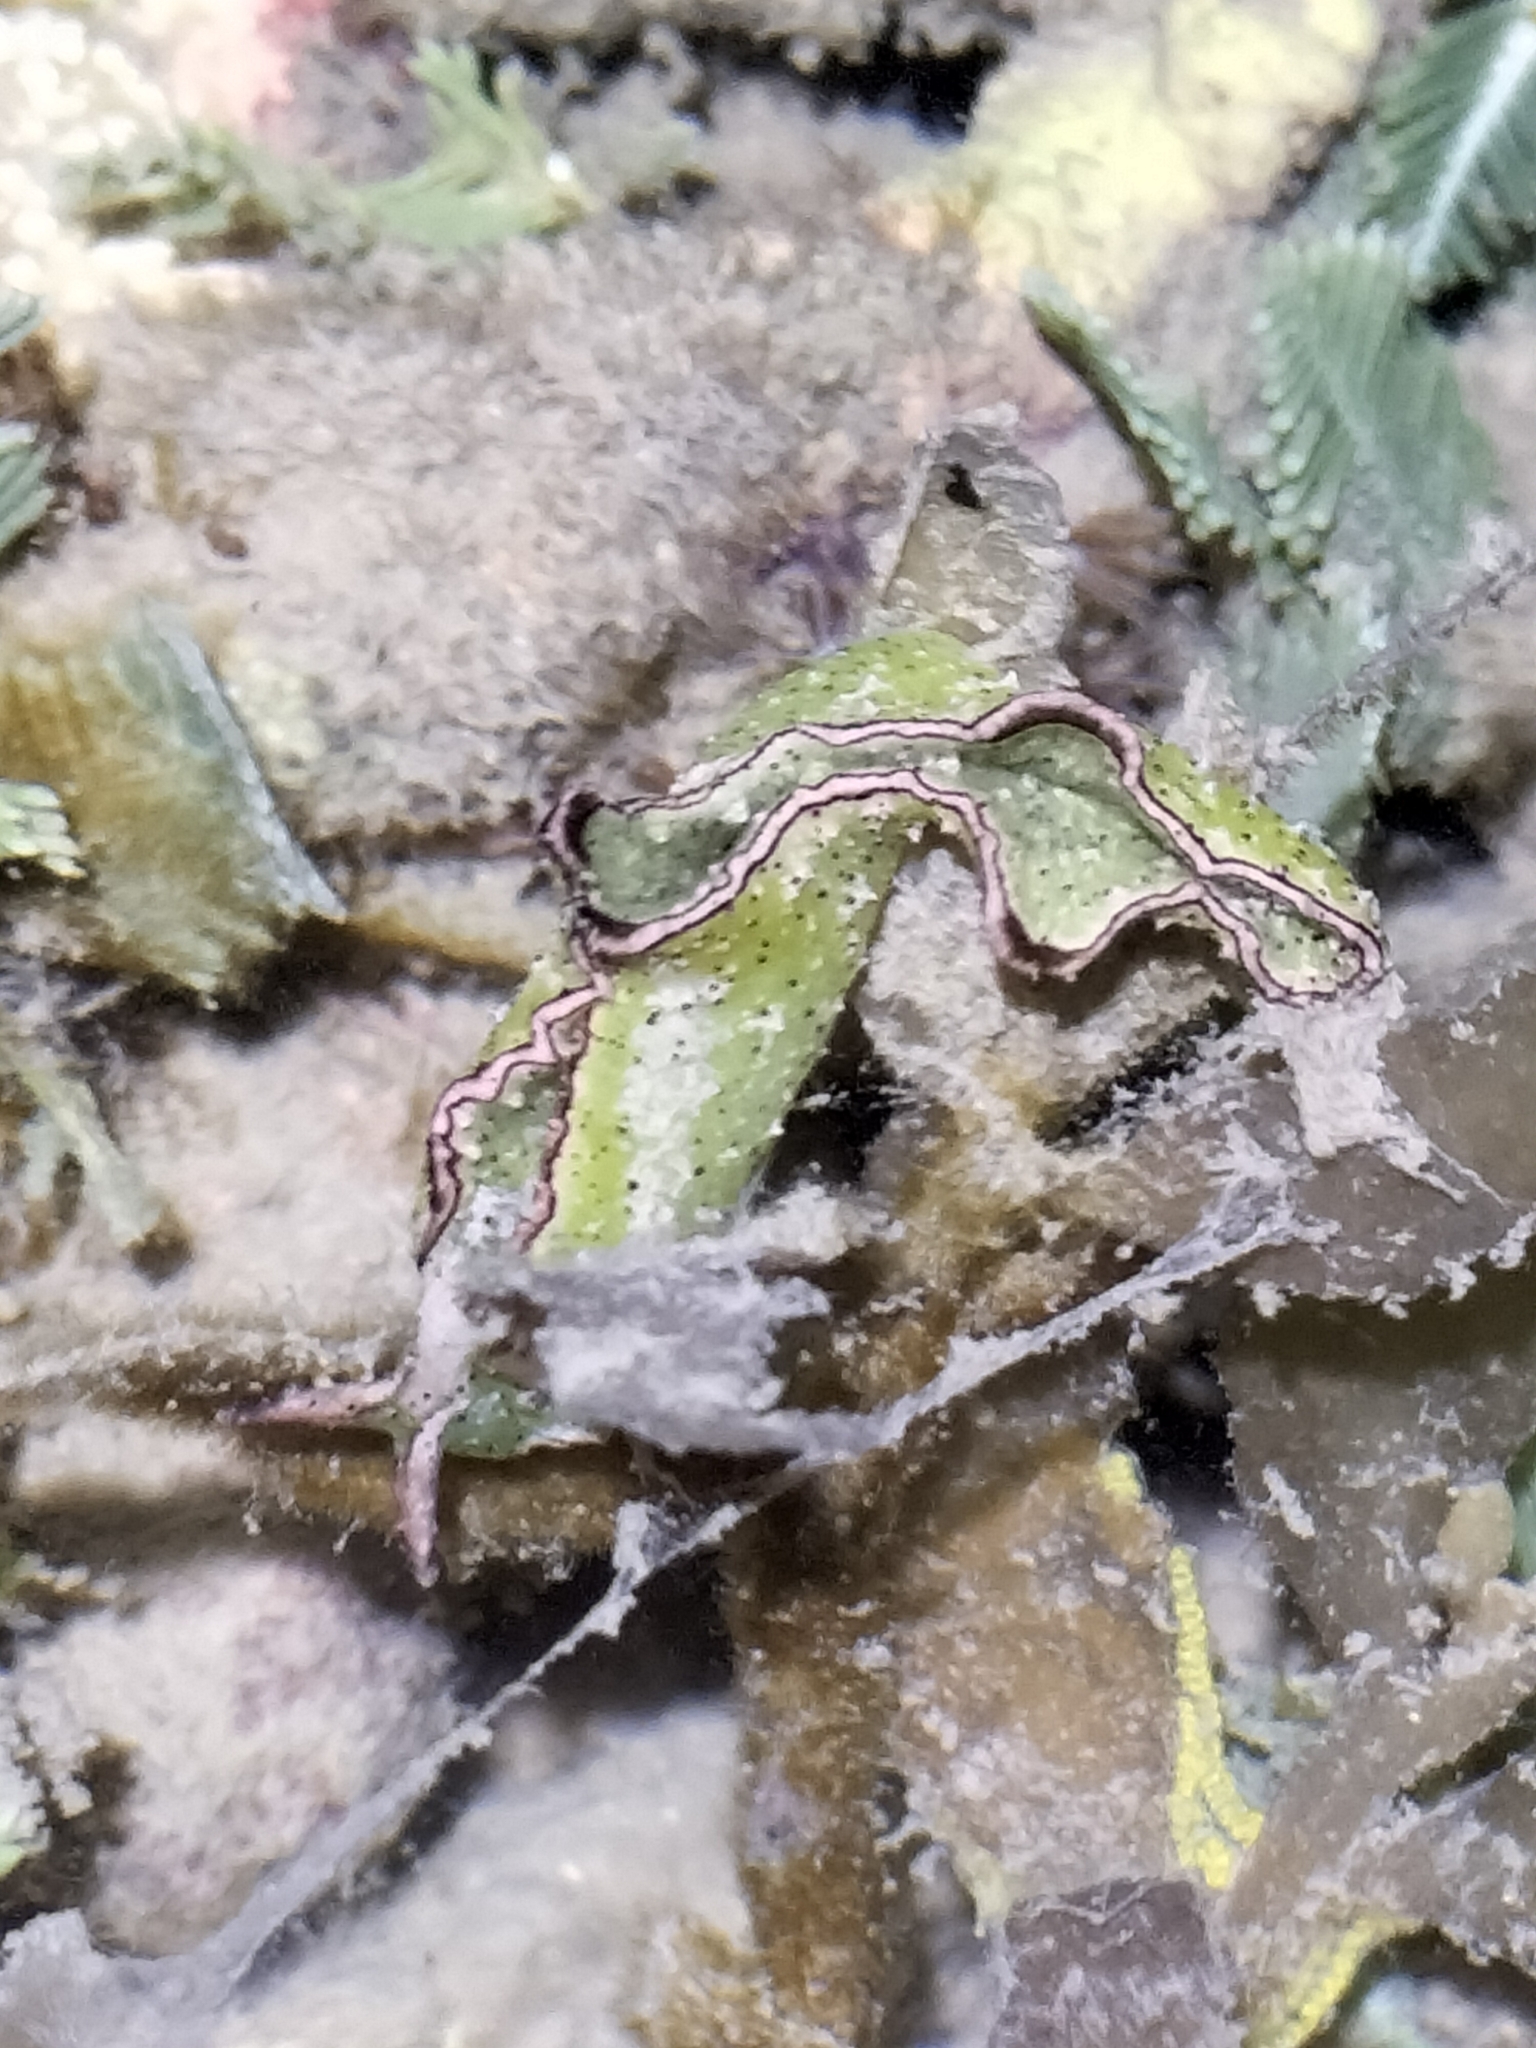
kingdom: Animalia
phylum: Mollusca
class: Gastropoda
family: Plakobranchidae
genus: Elysia
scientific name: Elysia tomentosa
